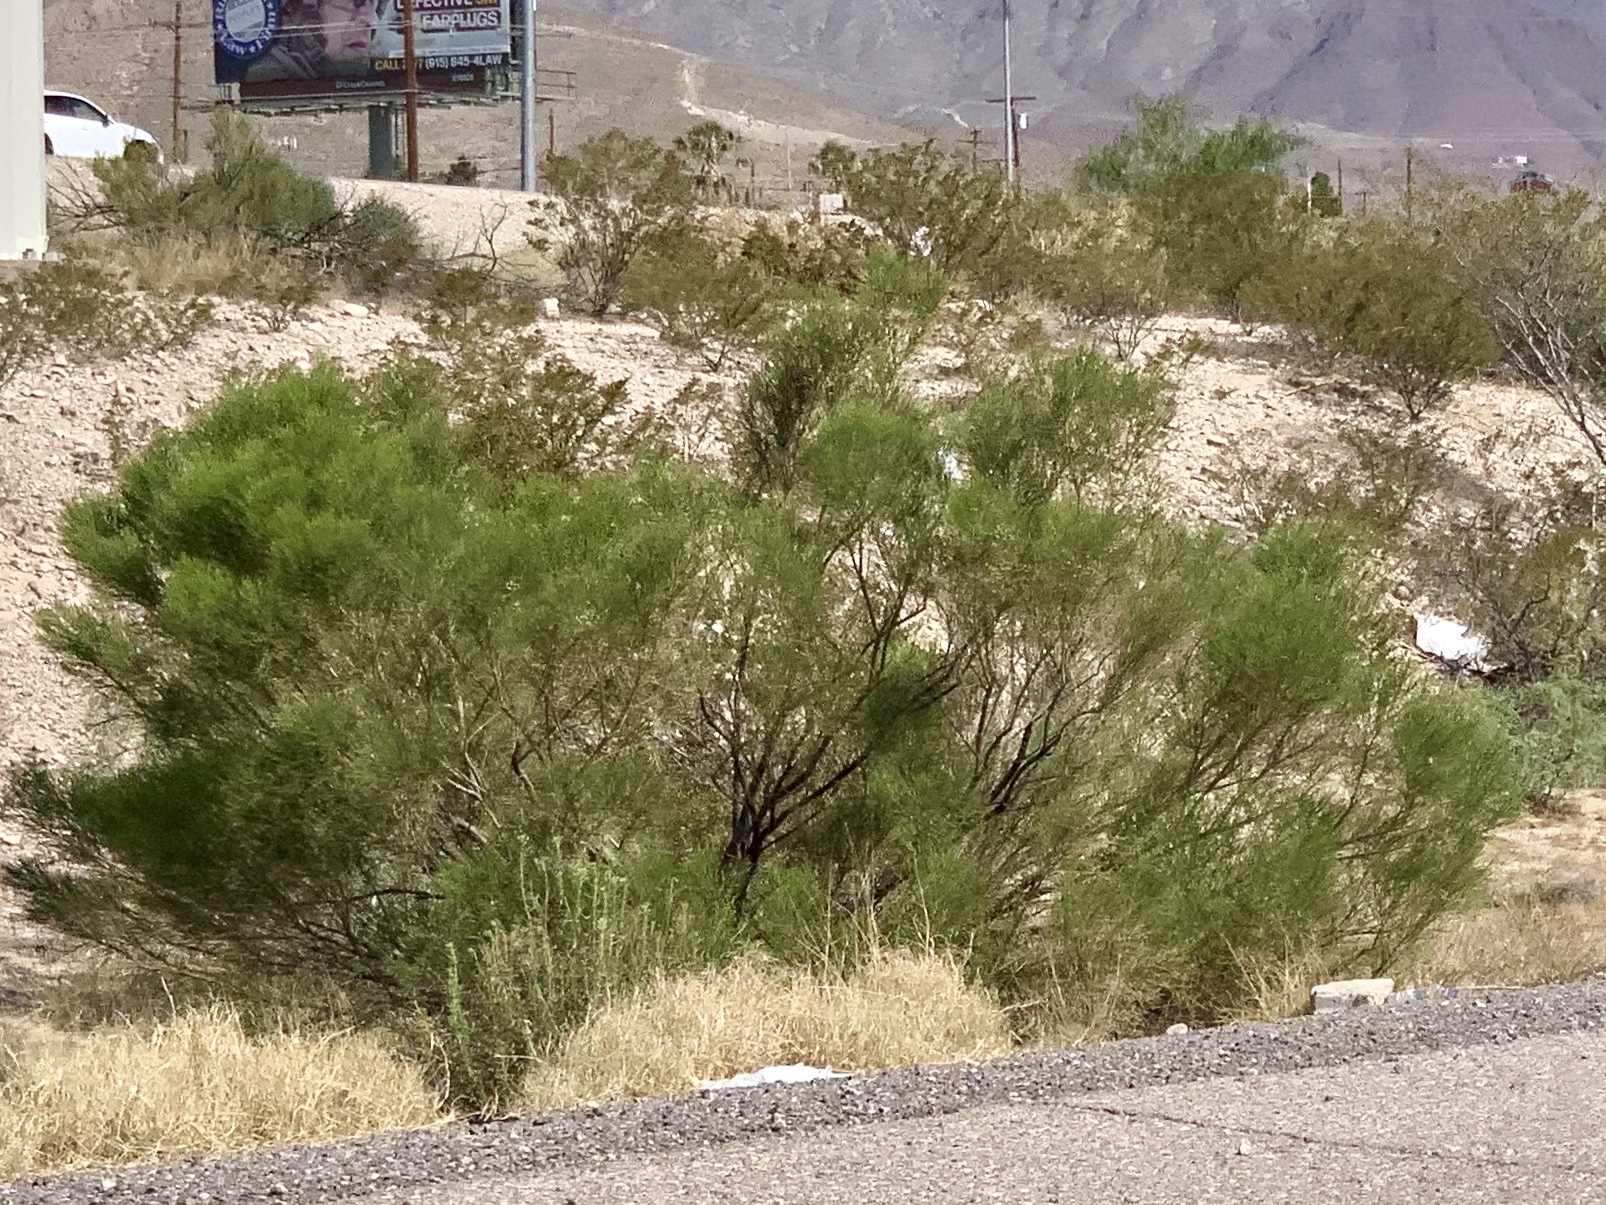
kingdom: Plantae
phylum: Tracheophyta
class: Magnoliopsida
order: Asterales
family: Asteraceae
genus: Baccharis
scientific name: Baccharis sarothroides
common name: Desert-broom
